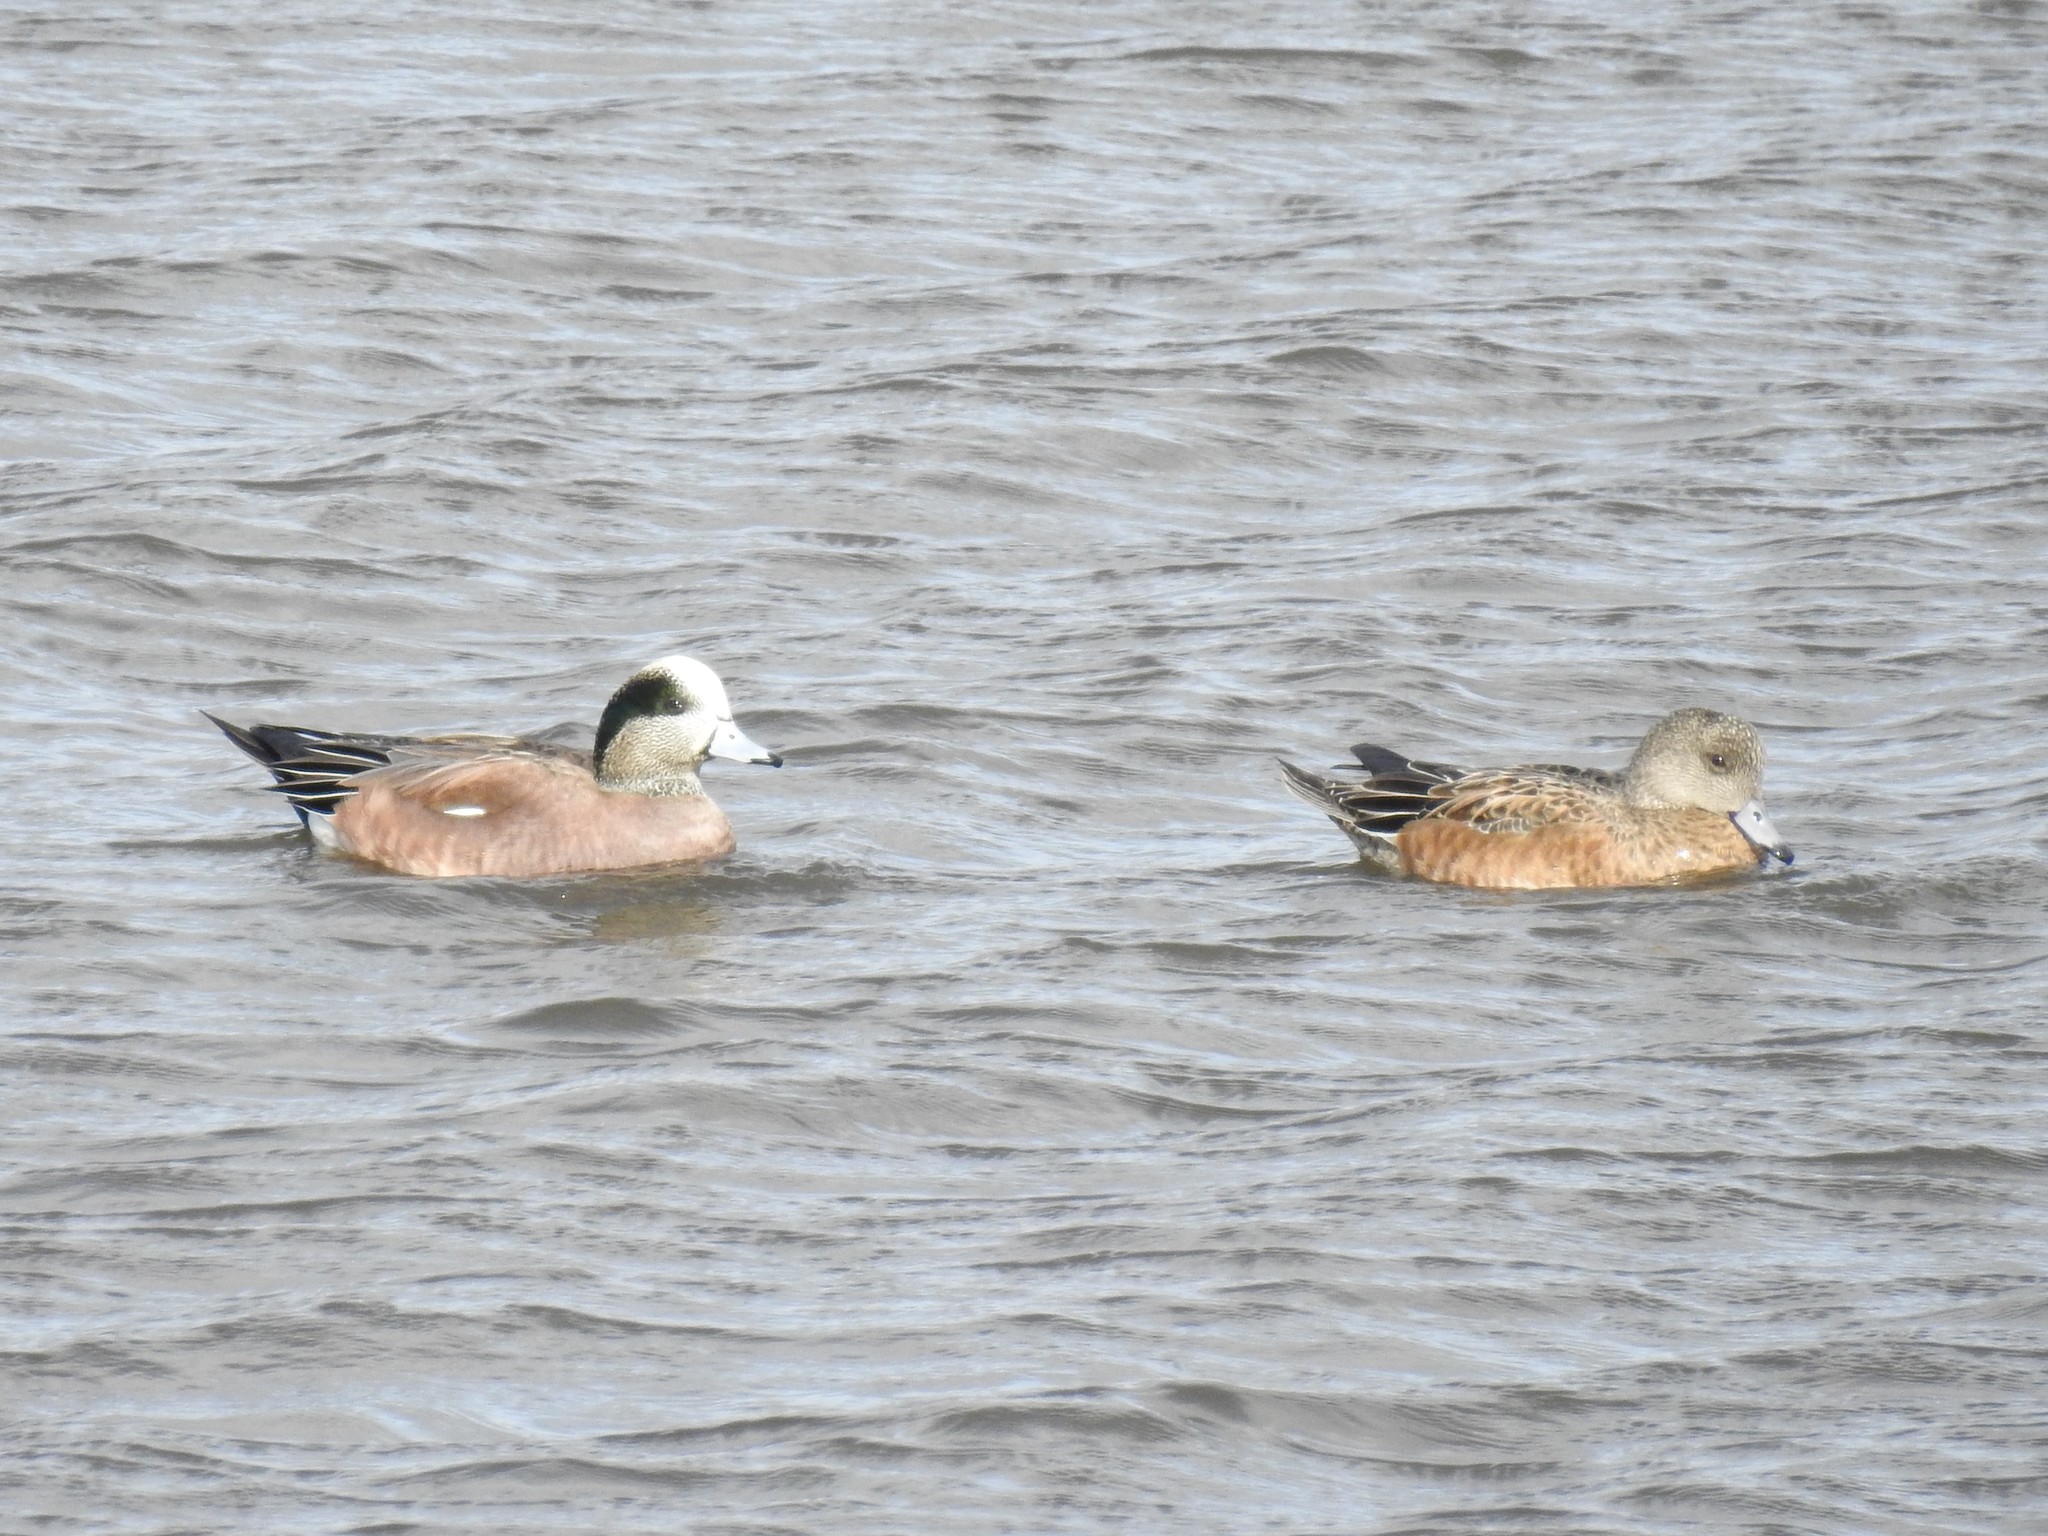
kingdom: Animalia
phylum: Chordata
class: Aves
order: Anseriformes
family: Anatidae
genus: Mareca
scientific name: Mareca americana
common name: American wigeon
